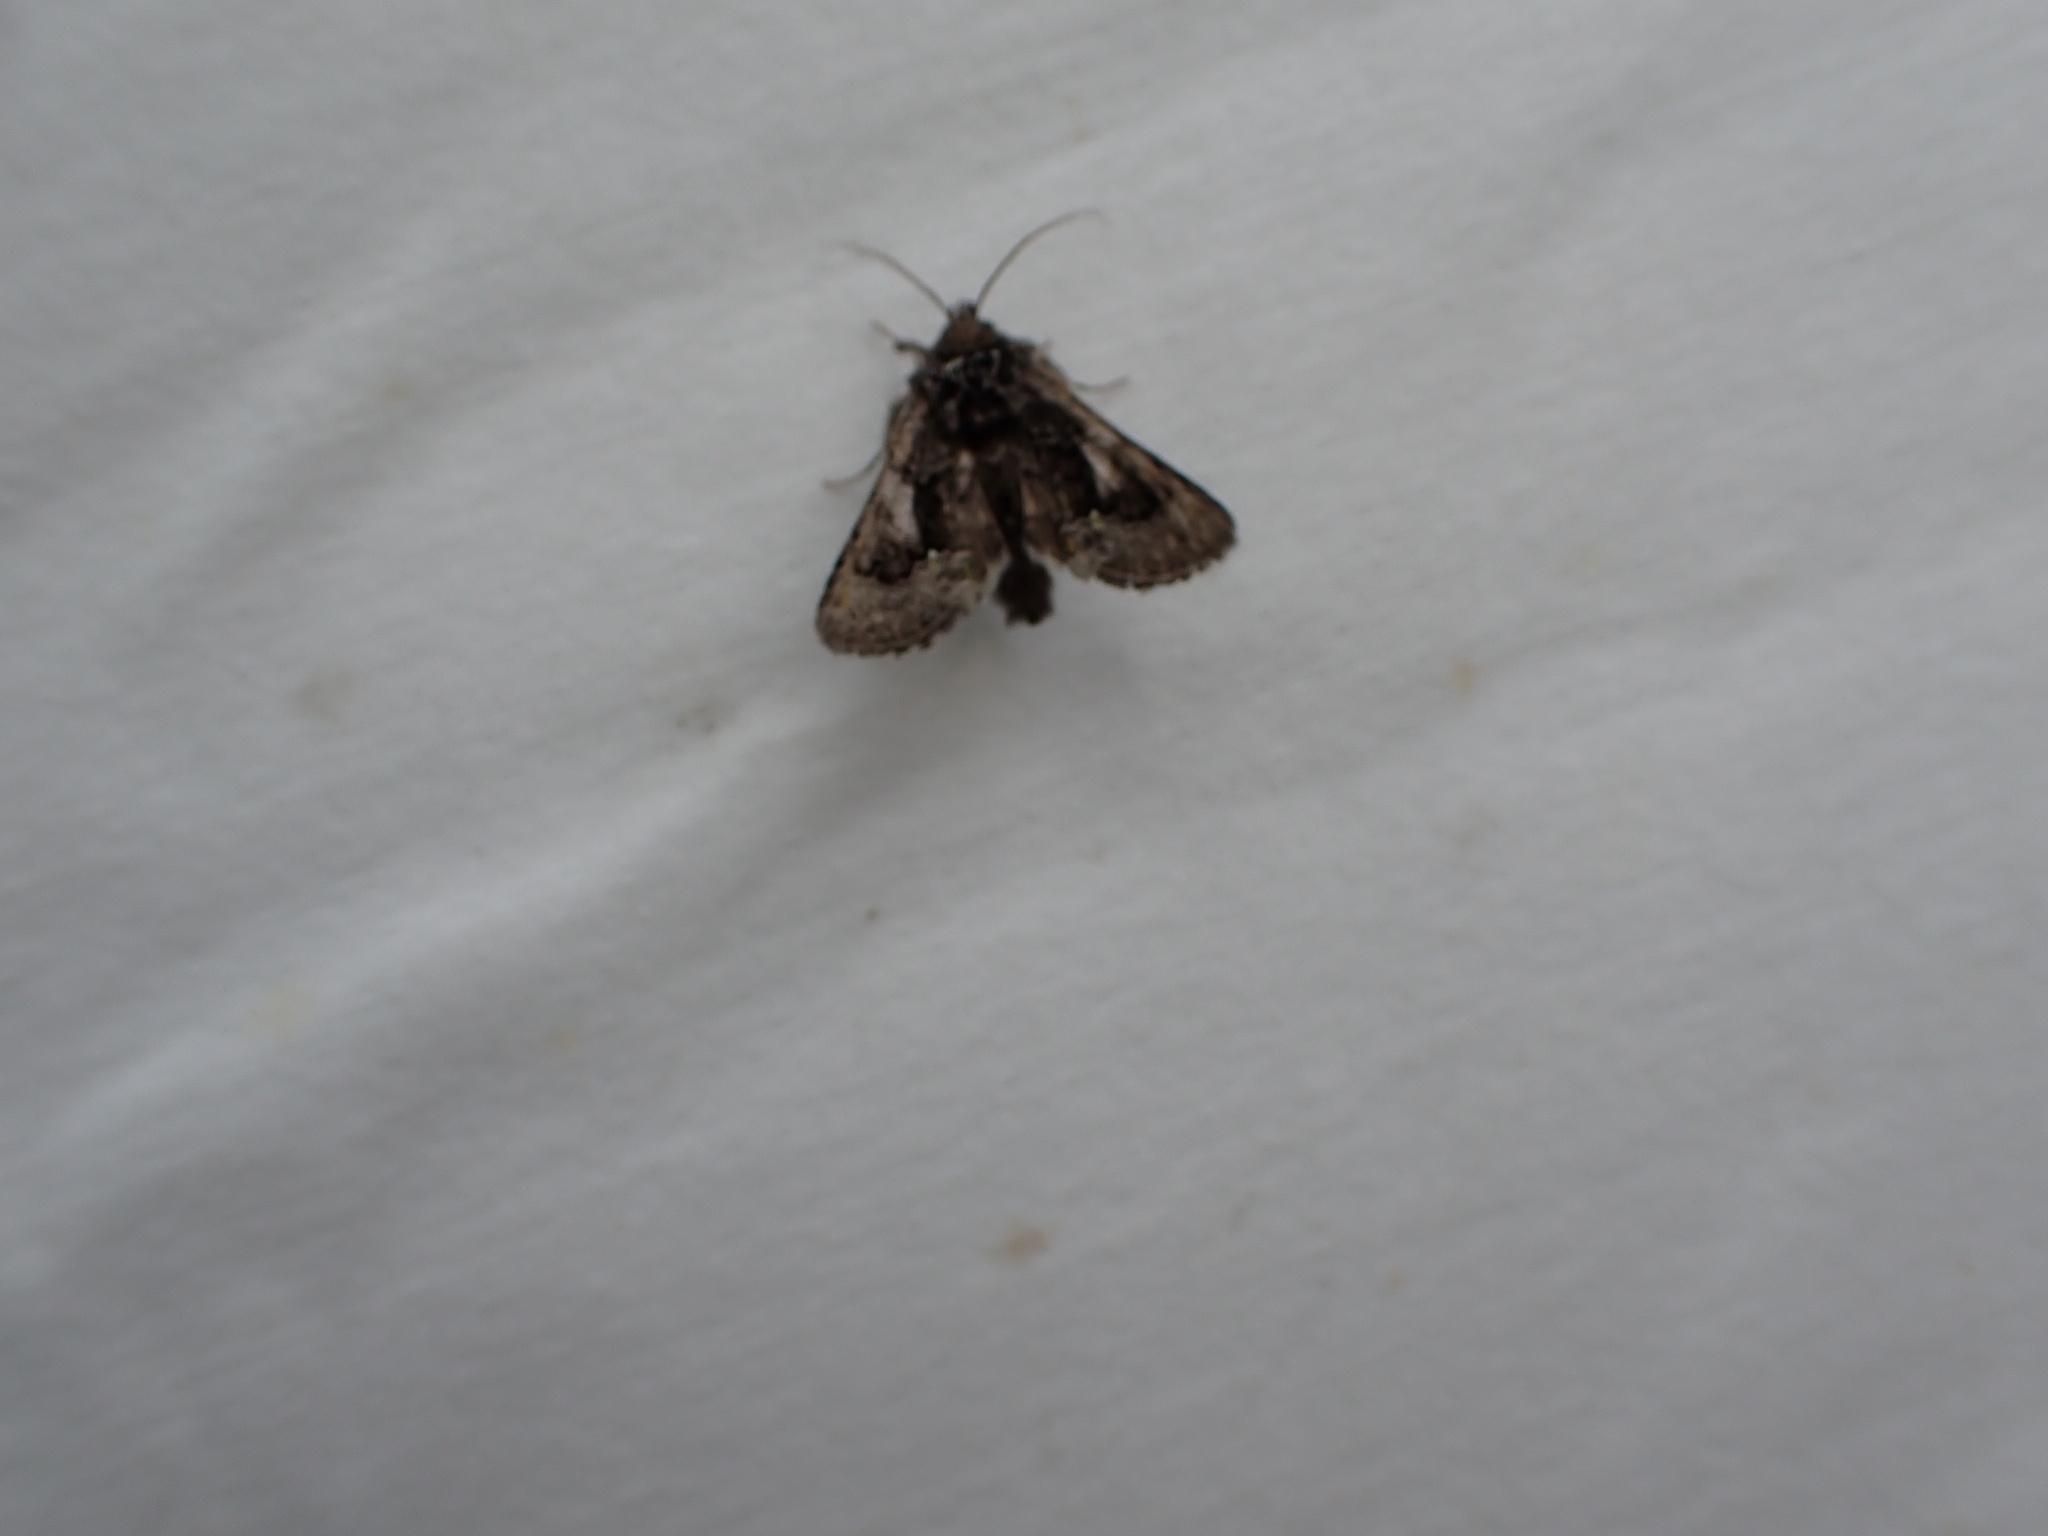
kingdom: Animalia
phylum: Arthropoda
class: Insecta
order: Lepidoptera
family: Noctuidae
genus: Behrensia
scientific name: Behrensia conchiformis
